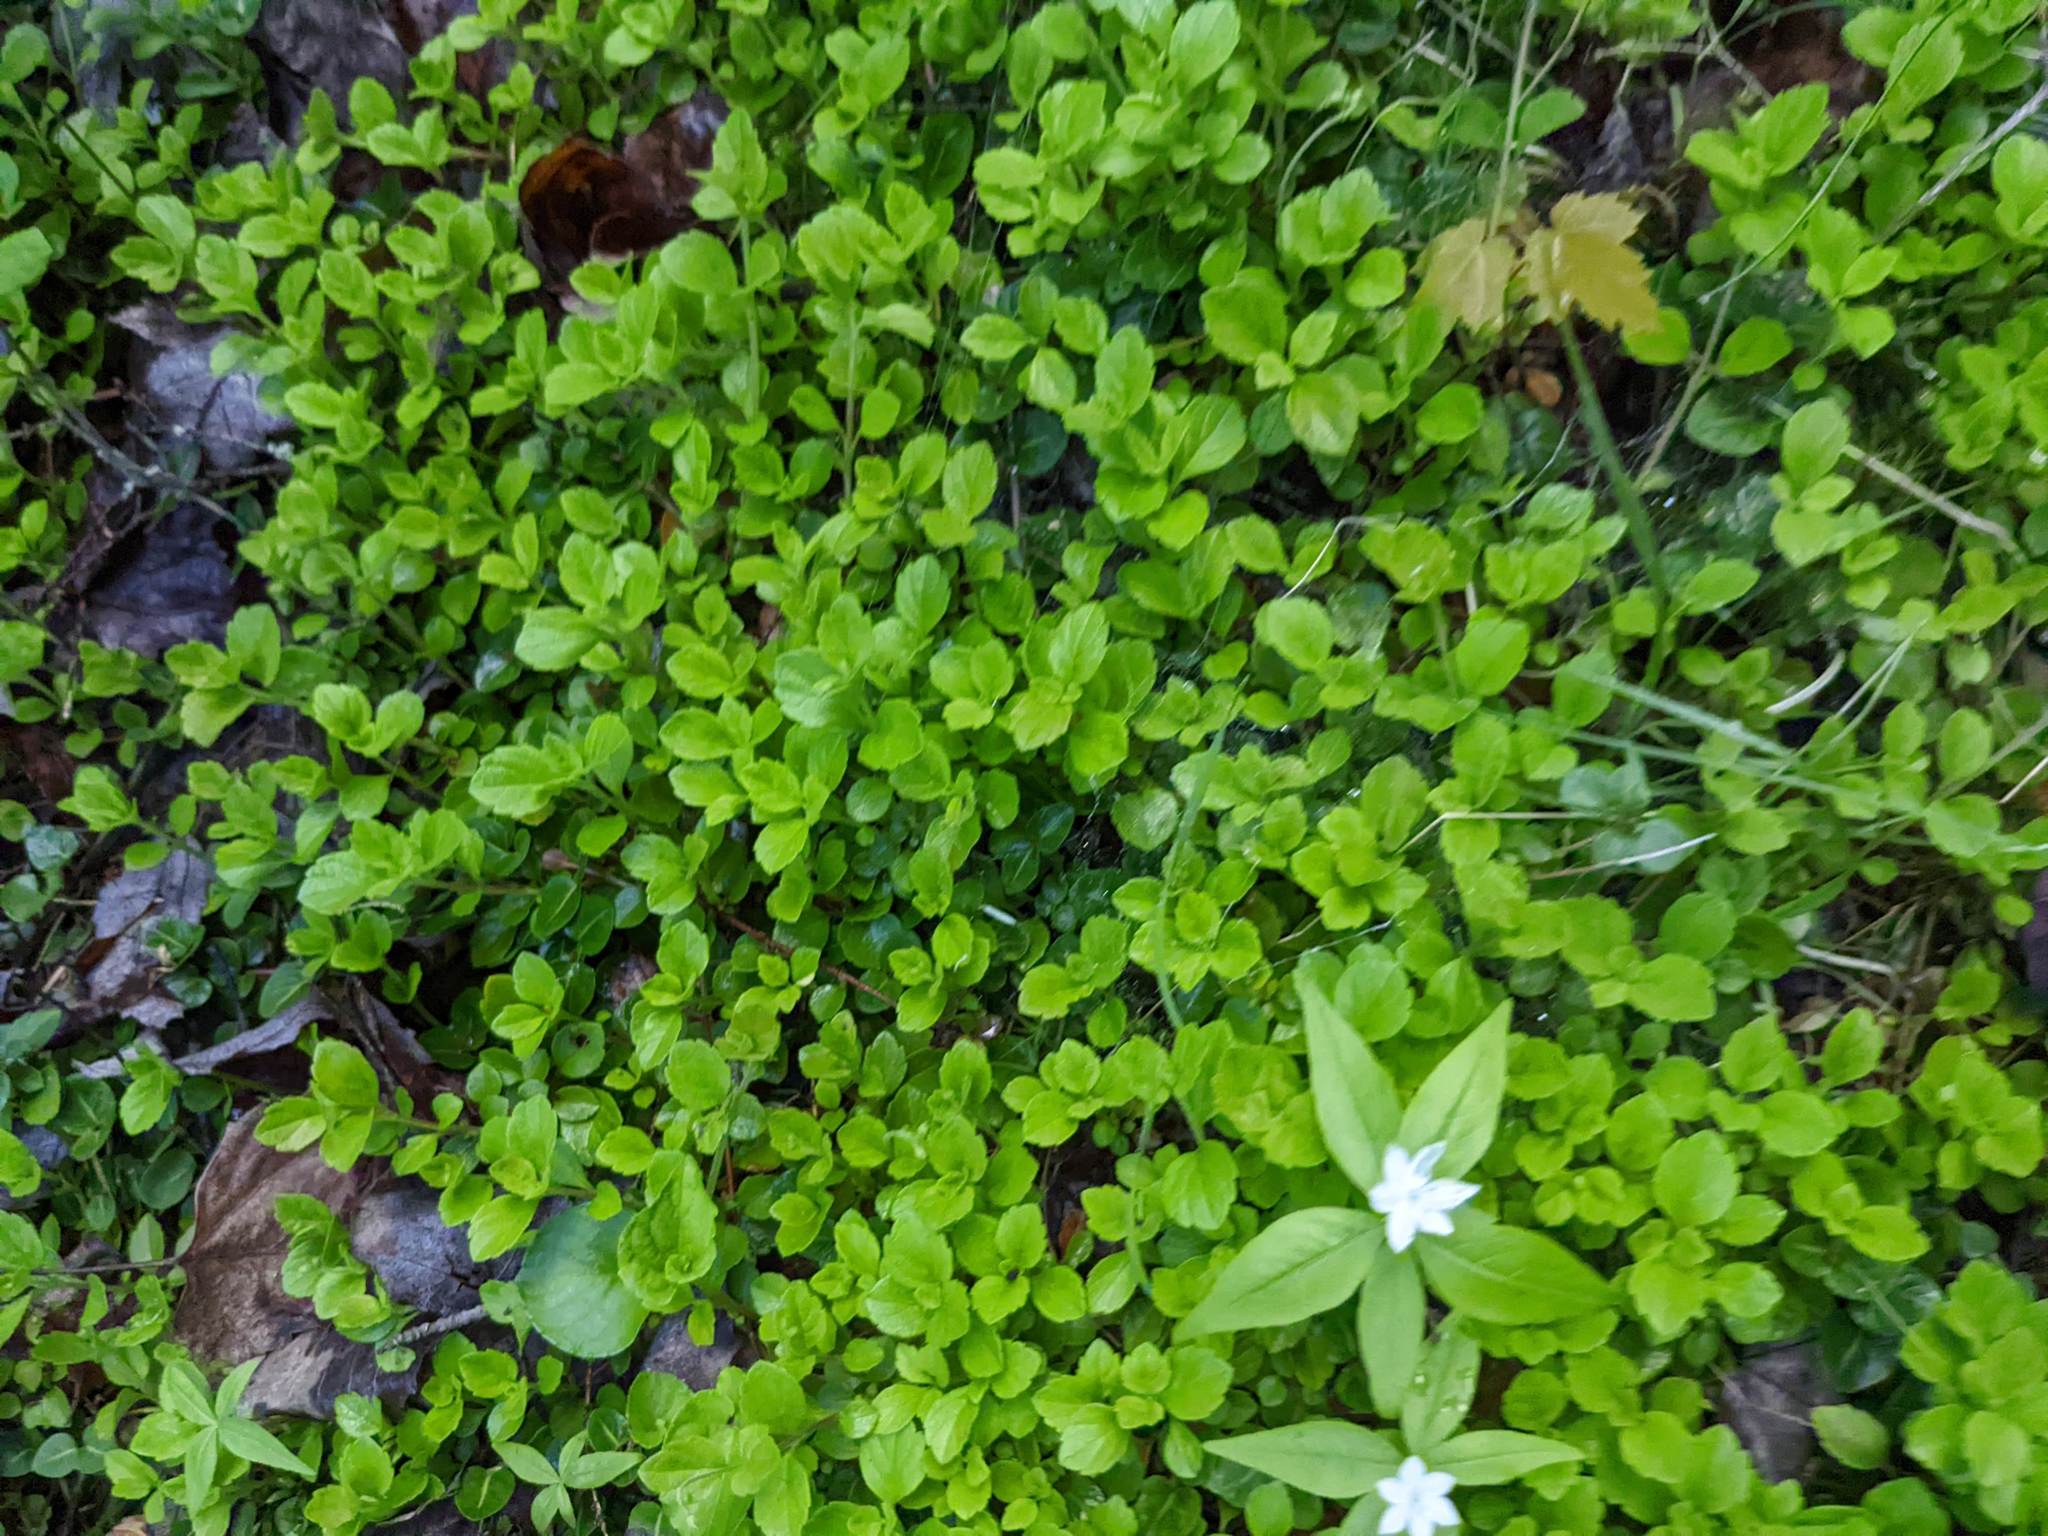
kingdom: Plantae
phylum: Tracheophyta
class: Magnoliopsida
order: Dipsacales
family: Caprifoliaceae
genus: Linnaea
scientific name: Linnaea borealis
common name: Twinflower
